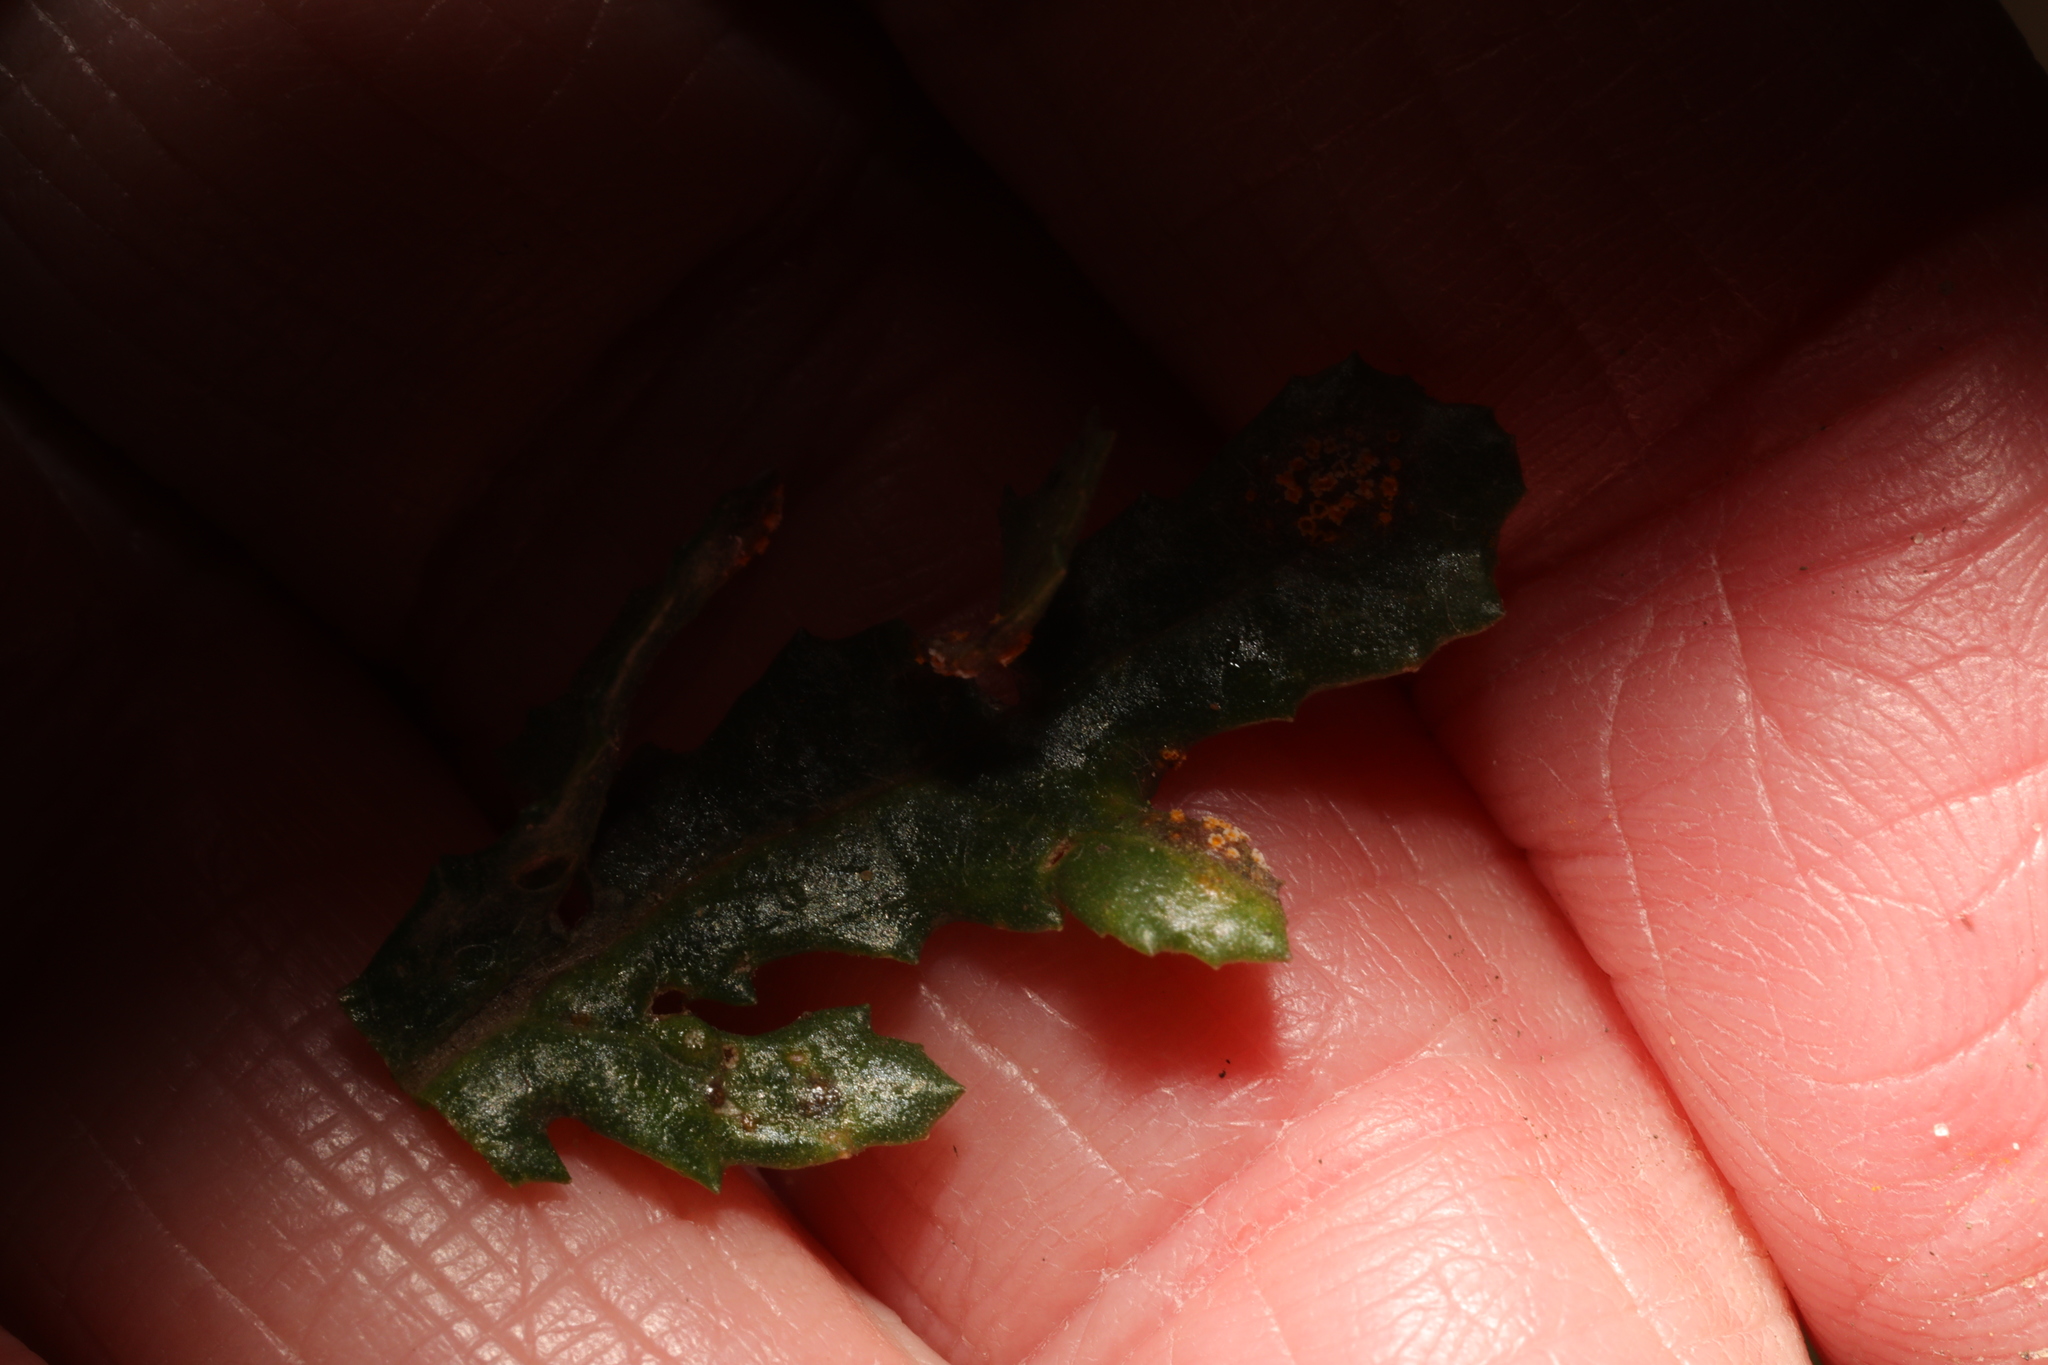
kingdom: Fungi
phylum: Basidiomycota
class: Pucciniomycetes
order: Pucciniales
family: Pucciniaceae
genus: Puccinia
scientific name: Puccinia lagenophorae
